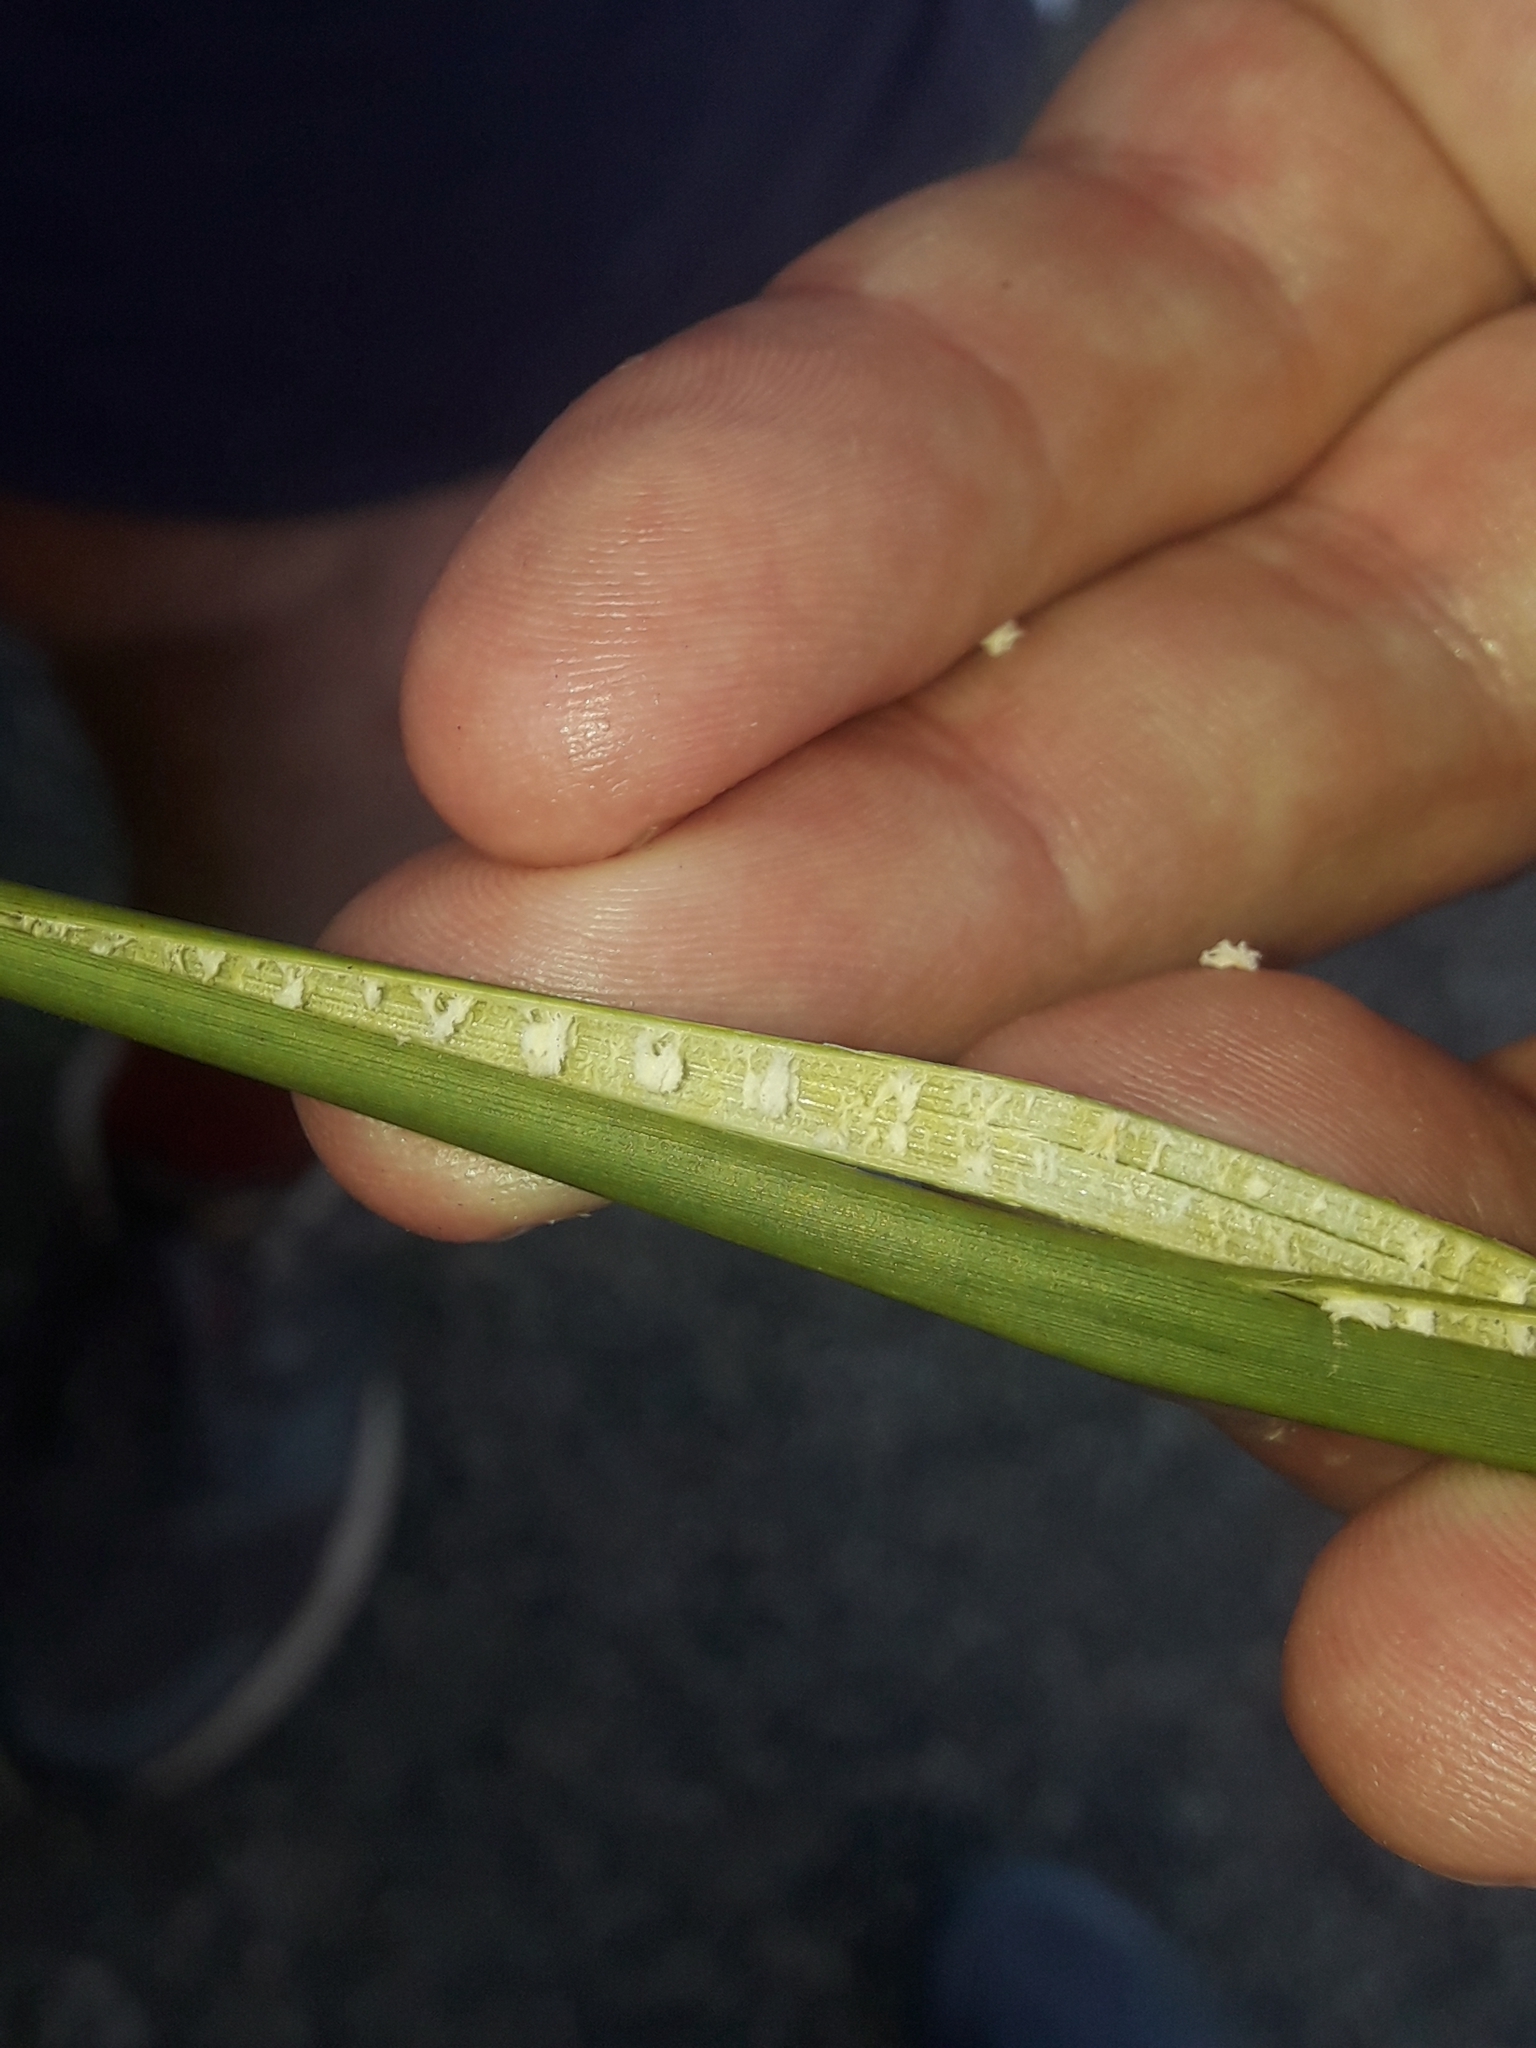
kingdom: Plantae
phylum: Tracheophyta
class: Liliopsida
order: Poales
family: Juncaceae
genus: Juncus
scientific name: Juncus australis
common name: Austral rush
